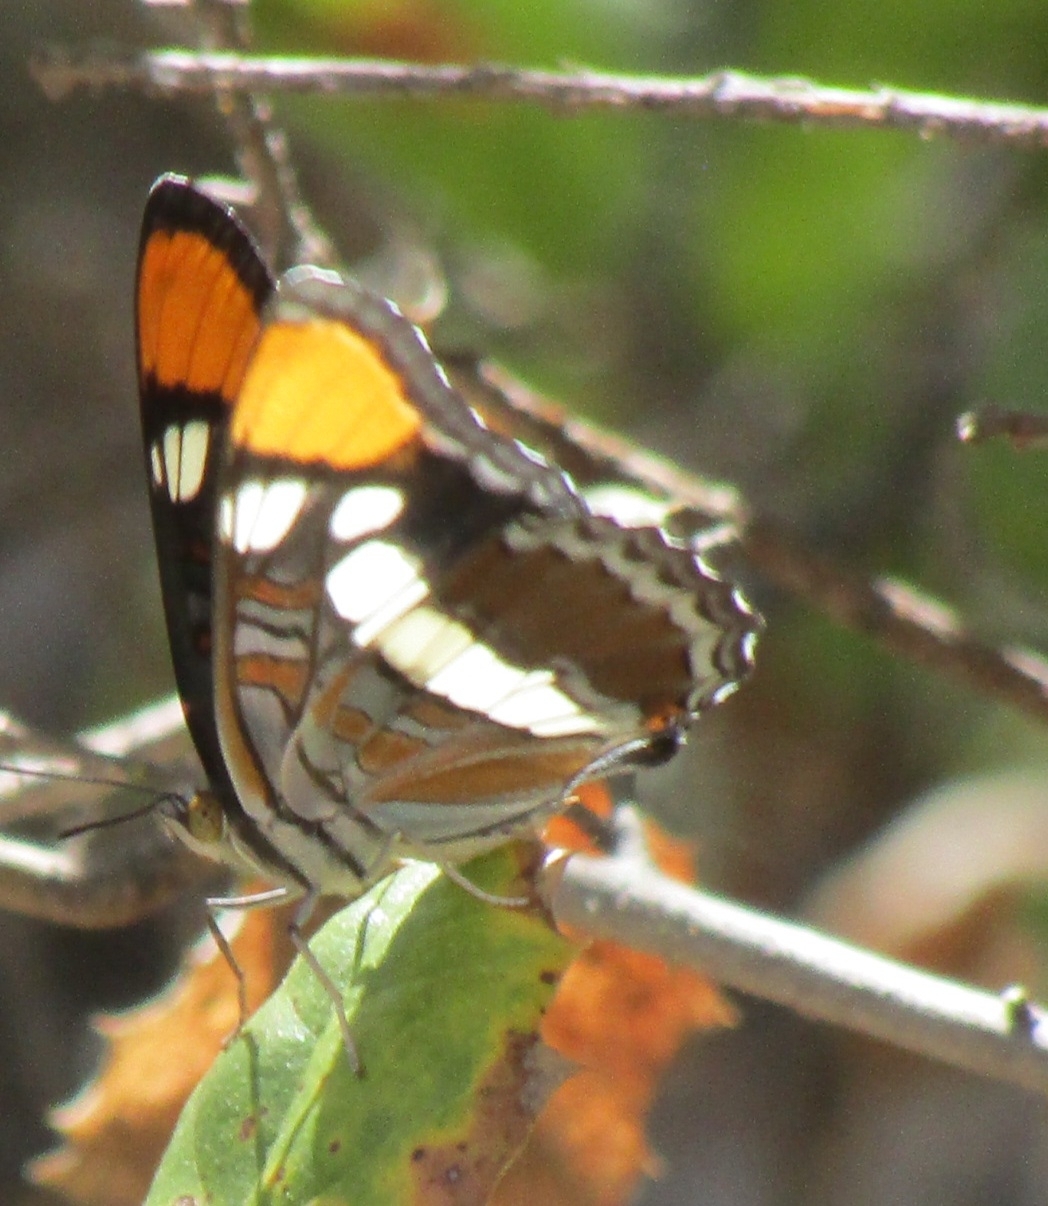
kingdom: Animalia
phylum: Arthropoda
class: Insecta
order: Lepidoptera
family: Nymphalidae
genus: Limenitis
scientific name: Limenitis bredowii
